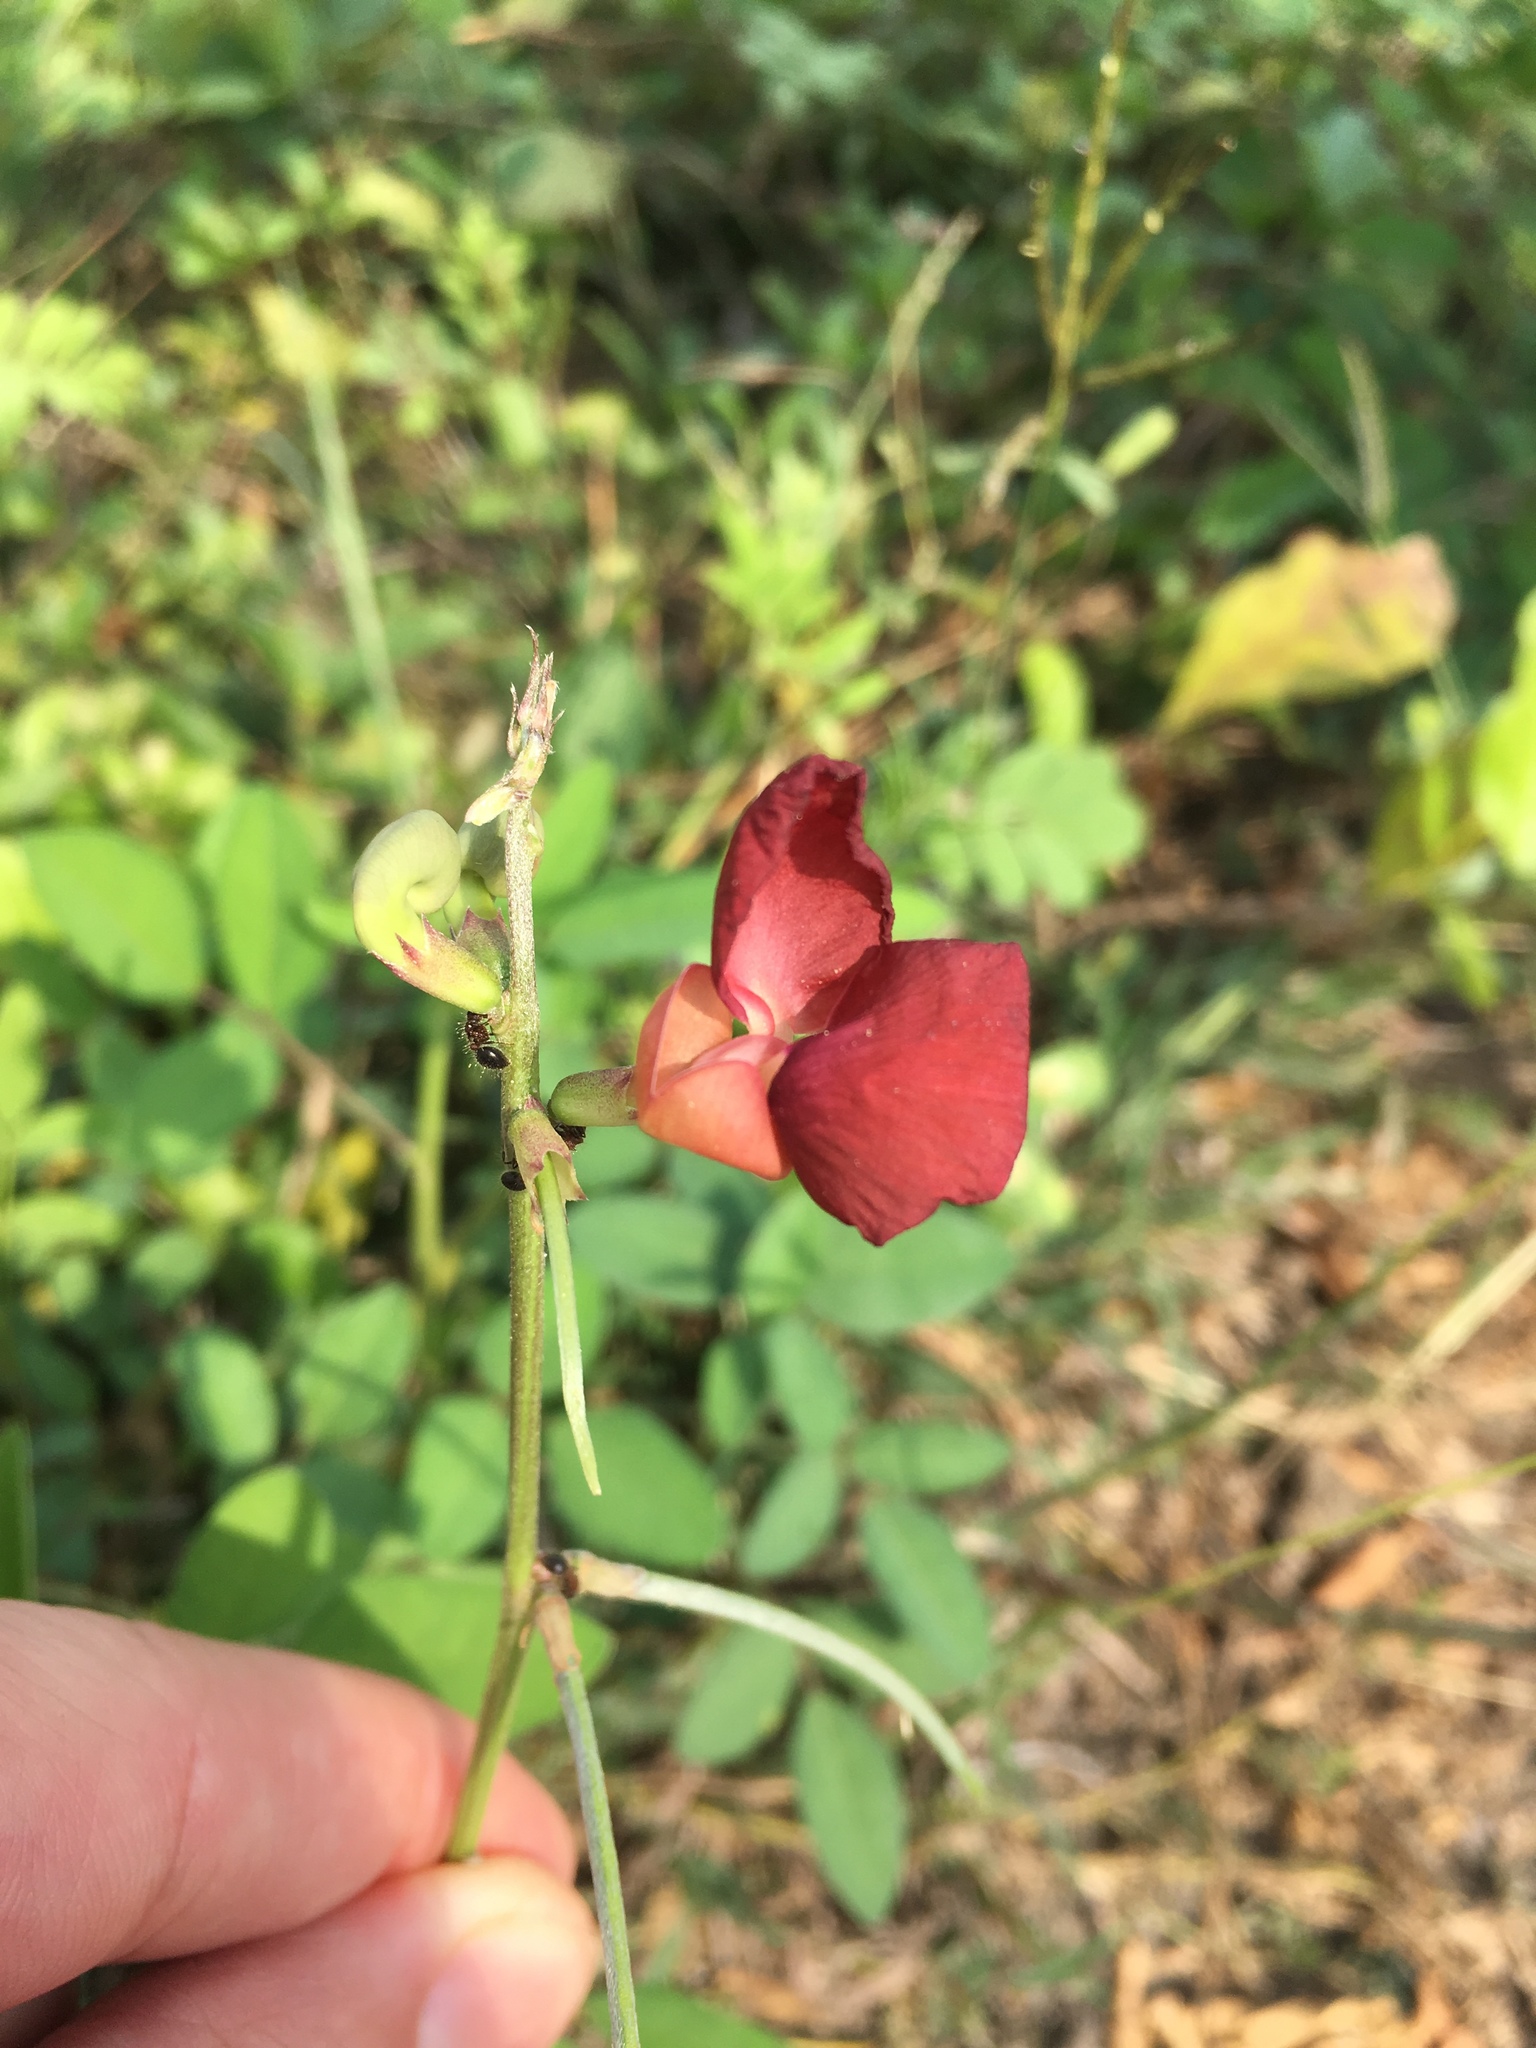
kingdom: Plantae
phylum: Tracheophyta
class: Magnoliopsida
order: Fabales
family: Fabaceae
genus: Macroptilium
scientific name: Macroptilium lathyroides
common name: Wild bushbean
